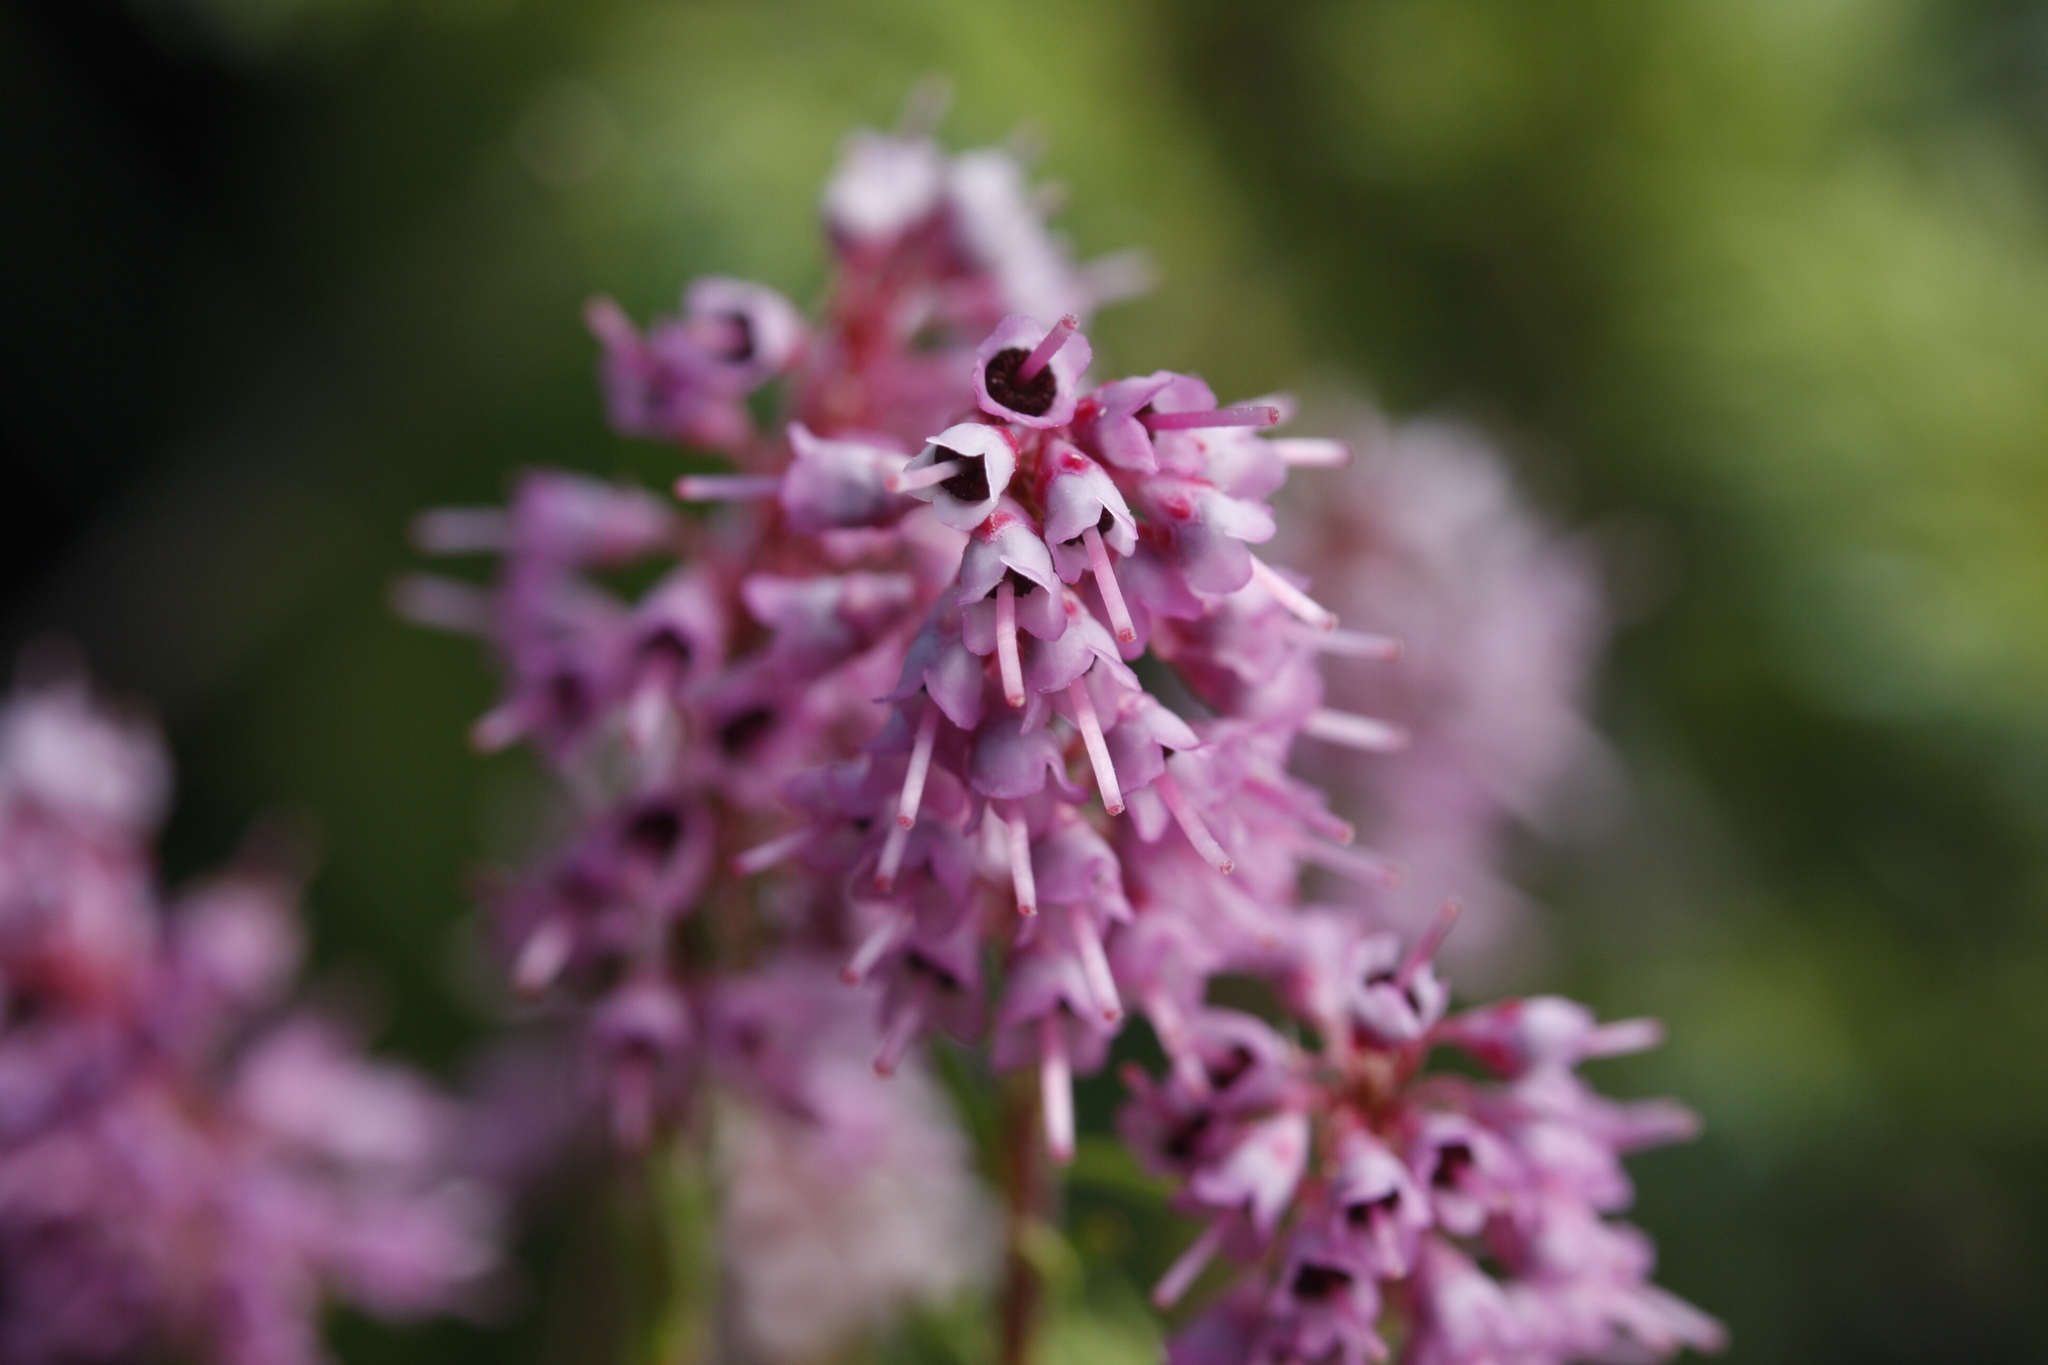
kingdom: Plantae
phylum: Tracheophyta
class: Magnoliopsida
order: Ericales
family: Ericaceae
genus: Erica
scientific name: Erica spiculifolia
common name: Spike heath
